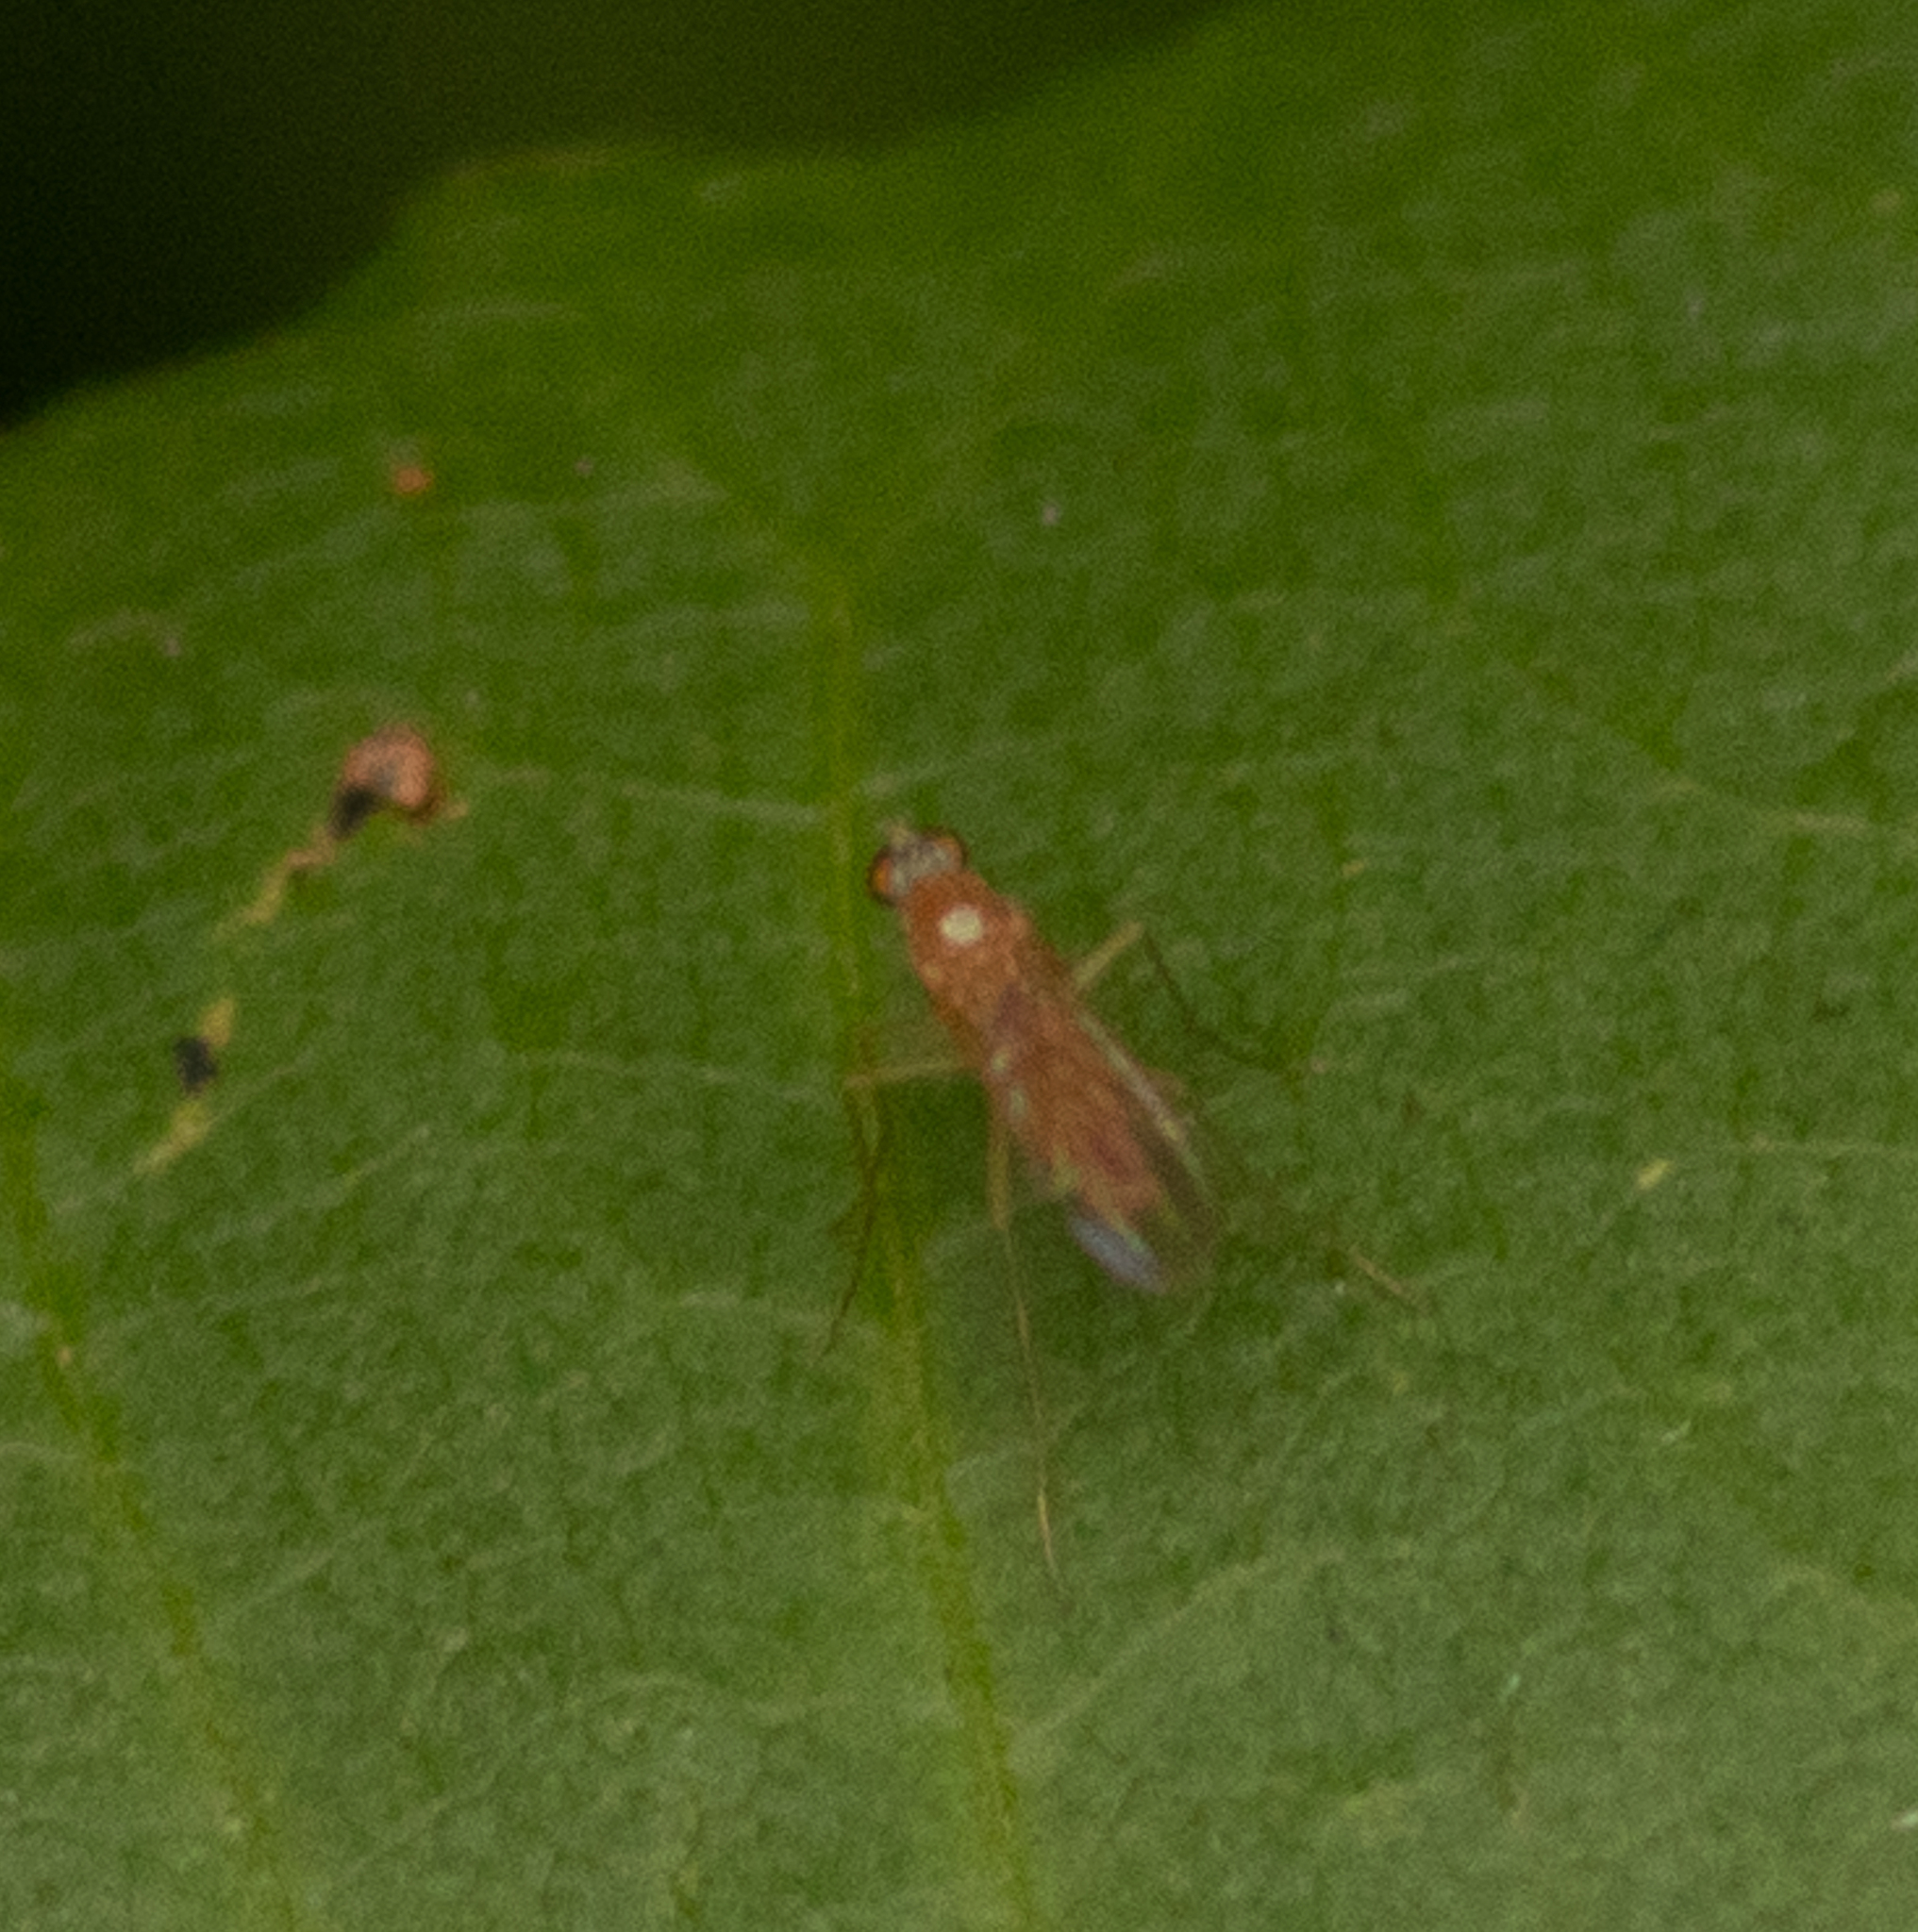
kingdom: Animalia
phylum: Arthropoda
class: Insecta
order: Diptera
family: Dolichopodidae
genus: Xanthochlorus
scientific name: Xanthochlorus helvinus
